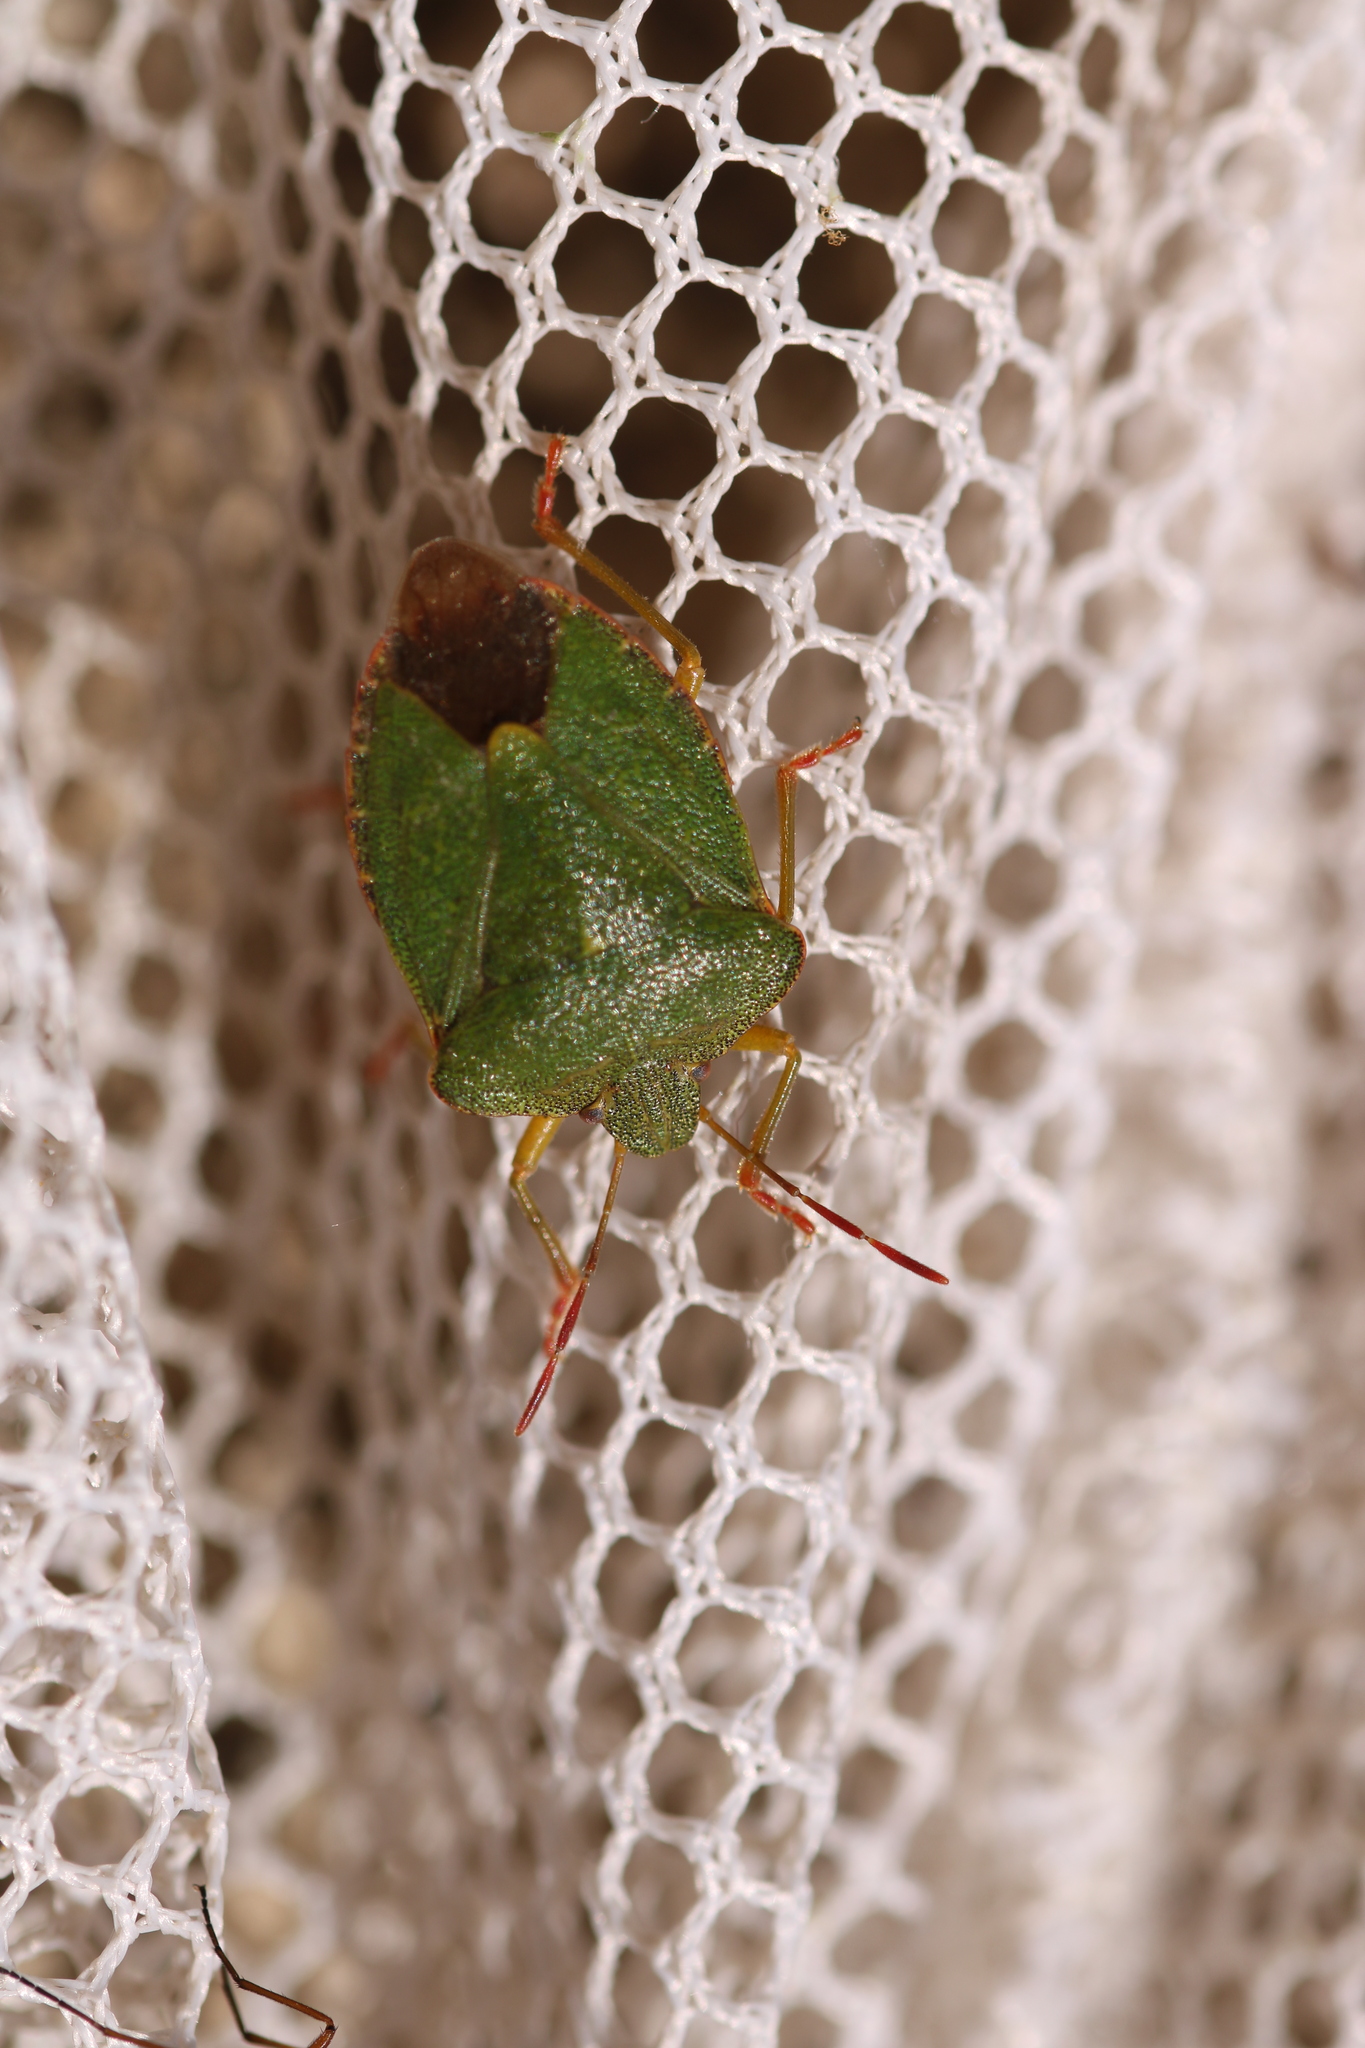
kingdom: Animalia
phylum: Arthropoda
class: Insecta
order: Hemiptera
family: Pentatomidae
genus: Palomena
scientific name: Palomena prasina
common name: Green shieldbug
